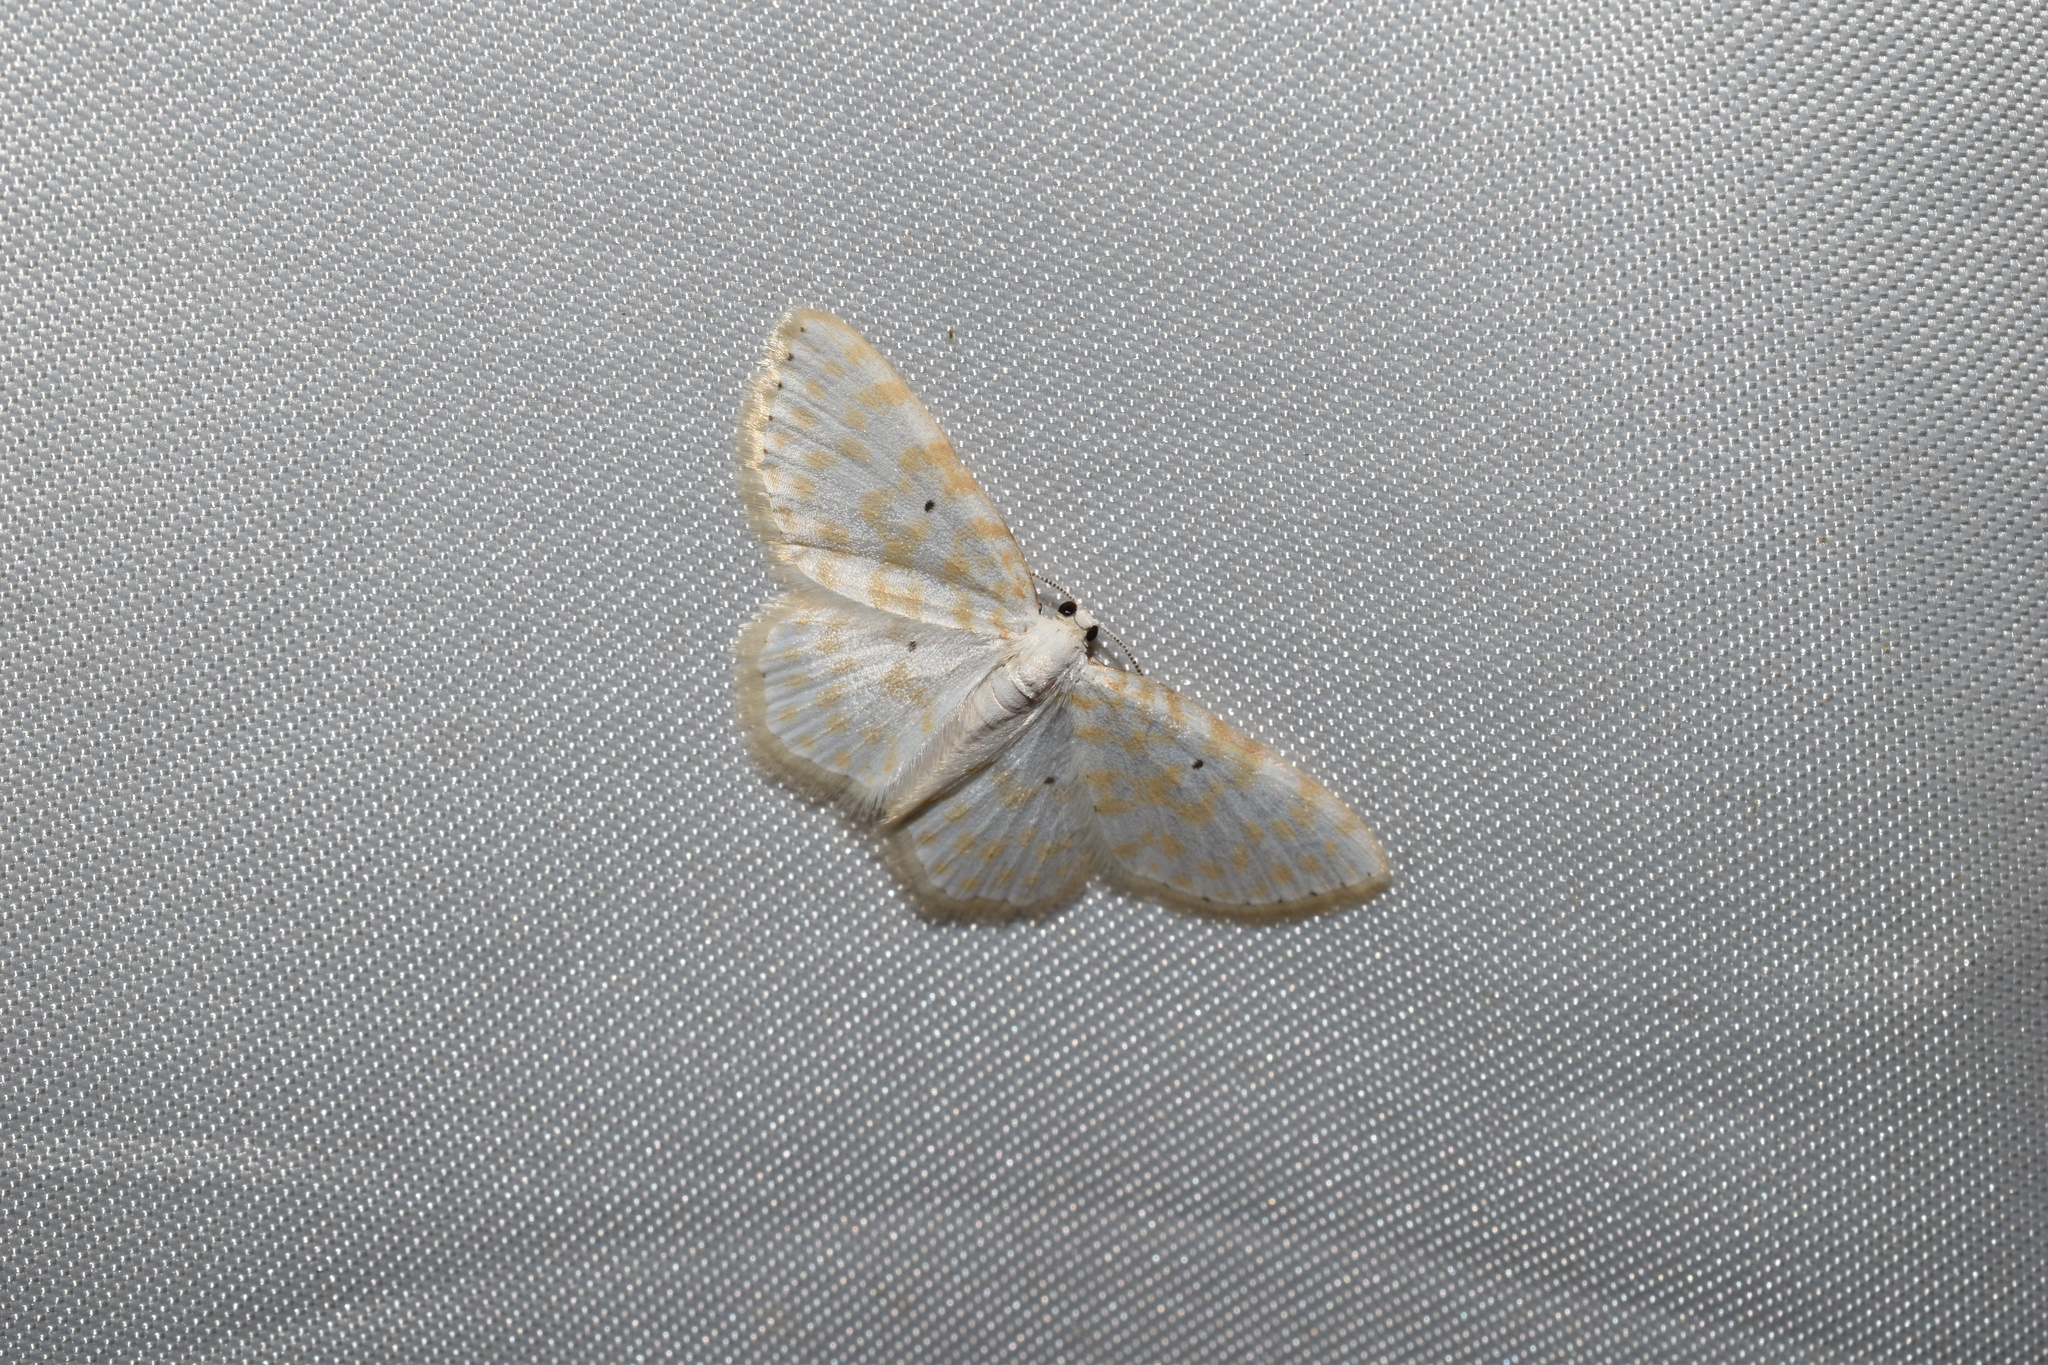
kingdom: Animalia
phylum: Arthropoda
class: Insecta
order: Lepidoptera
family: Geometridae
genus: Asthena
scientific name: Asthena corculina
